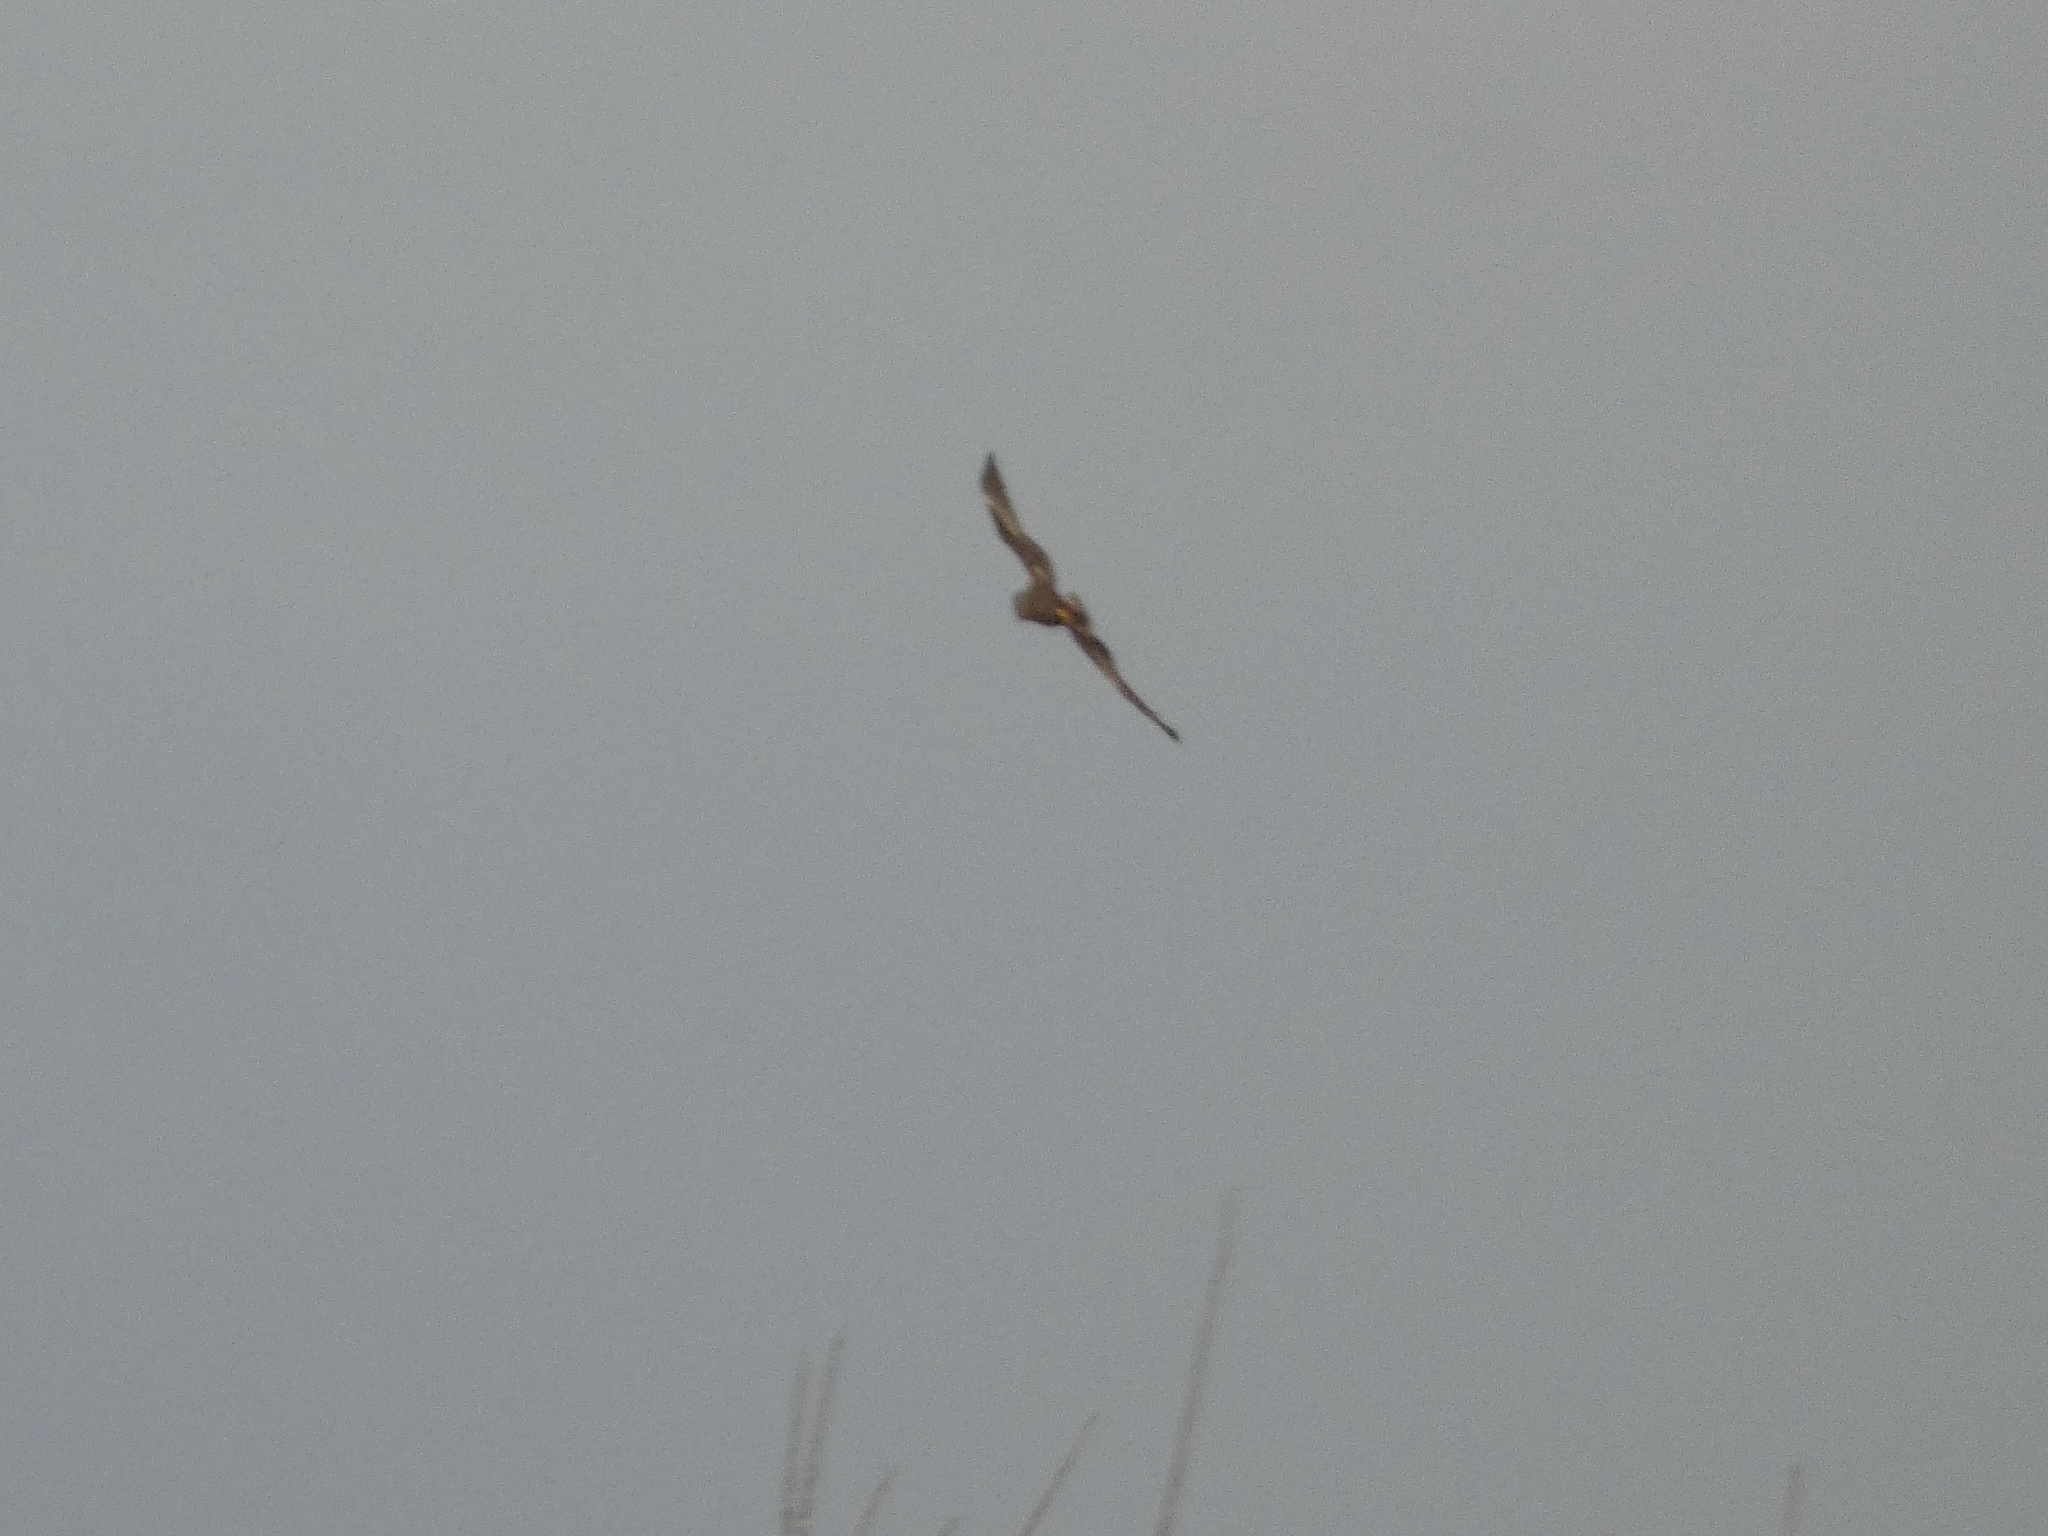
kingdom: Animalia
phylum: Chordata
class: Aves
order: Accipitriformes
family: Accipitridae
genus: Circus
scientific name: Circus aeruginosus
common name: Western marsh harrier
